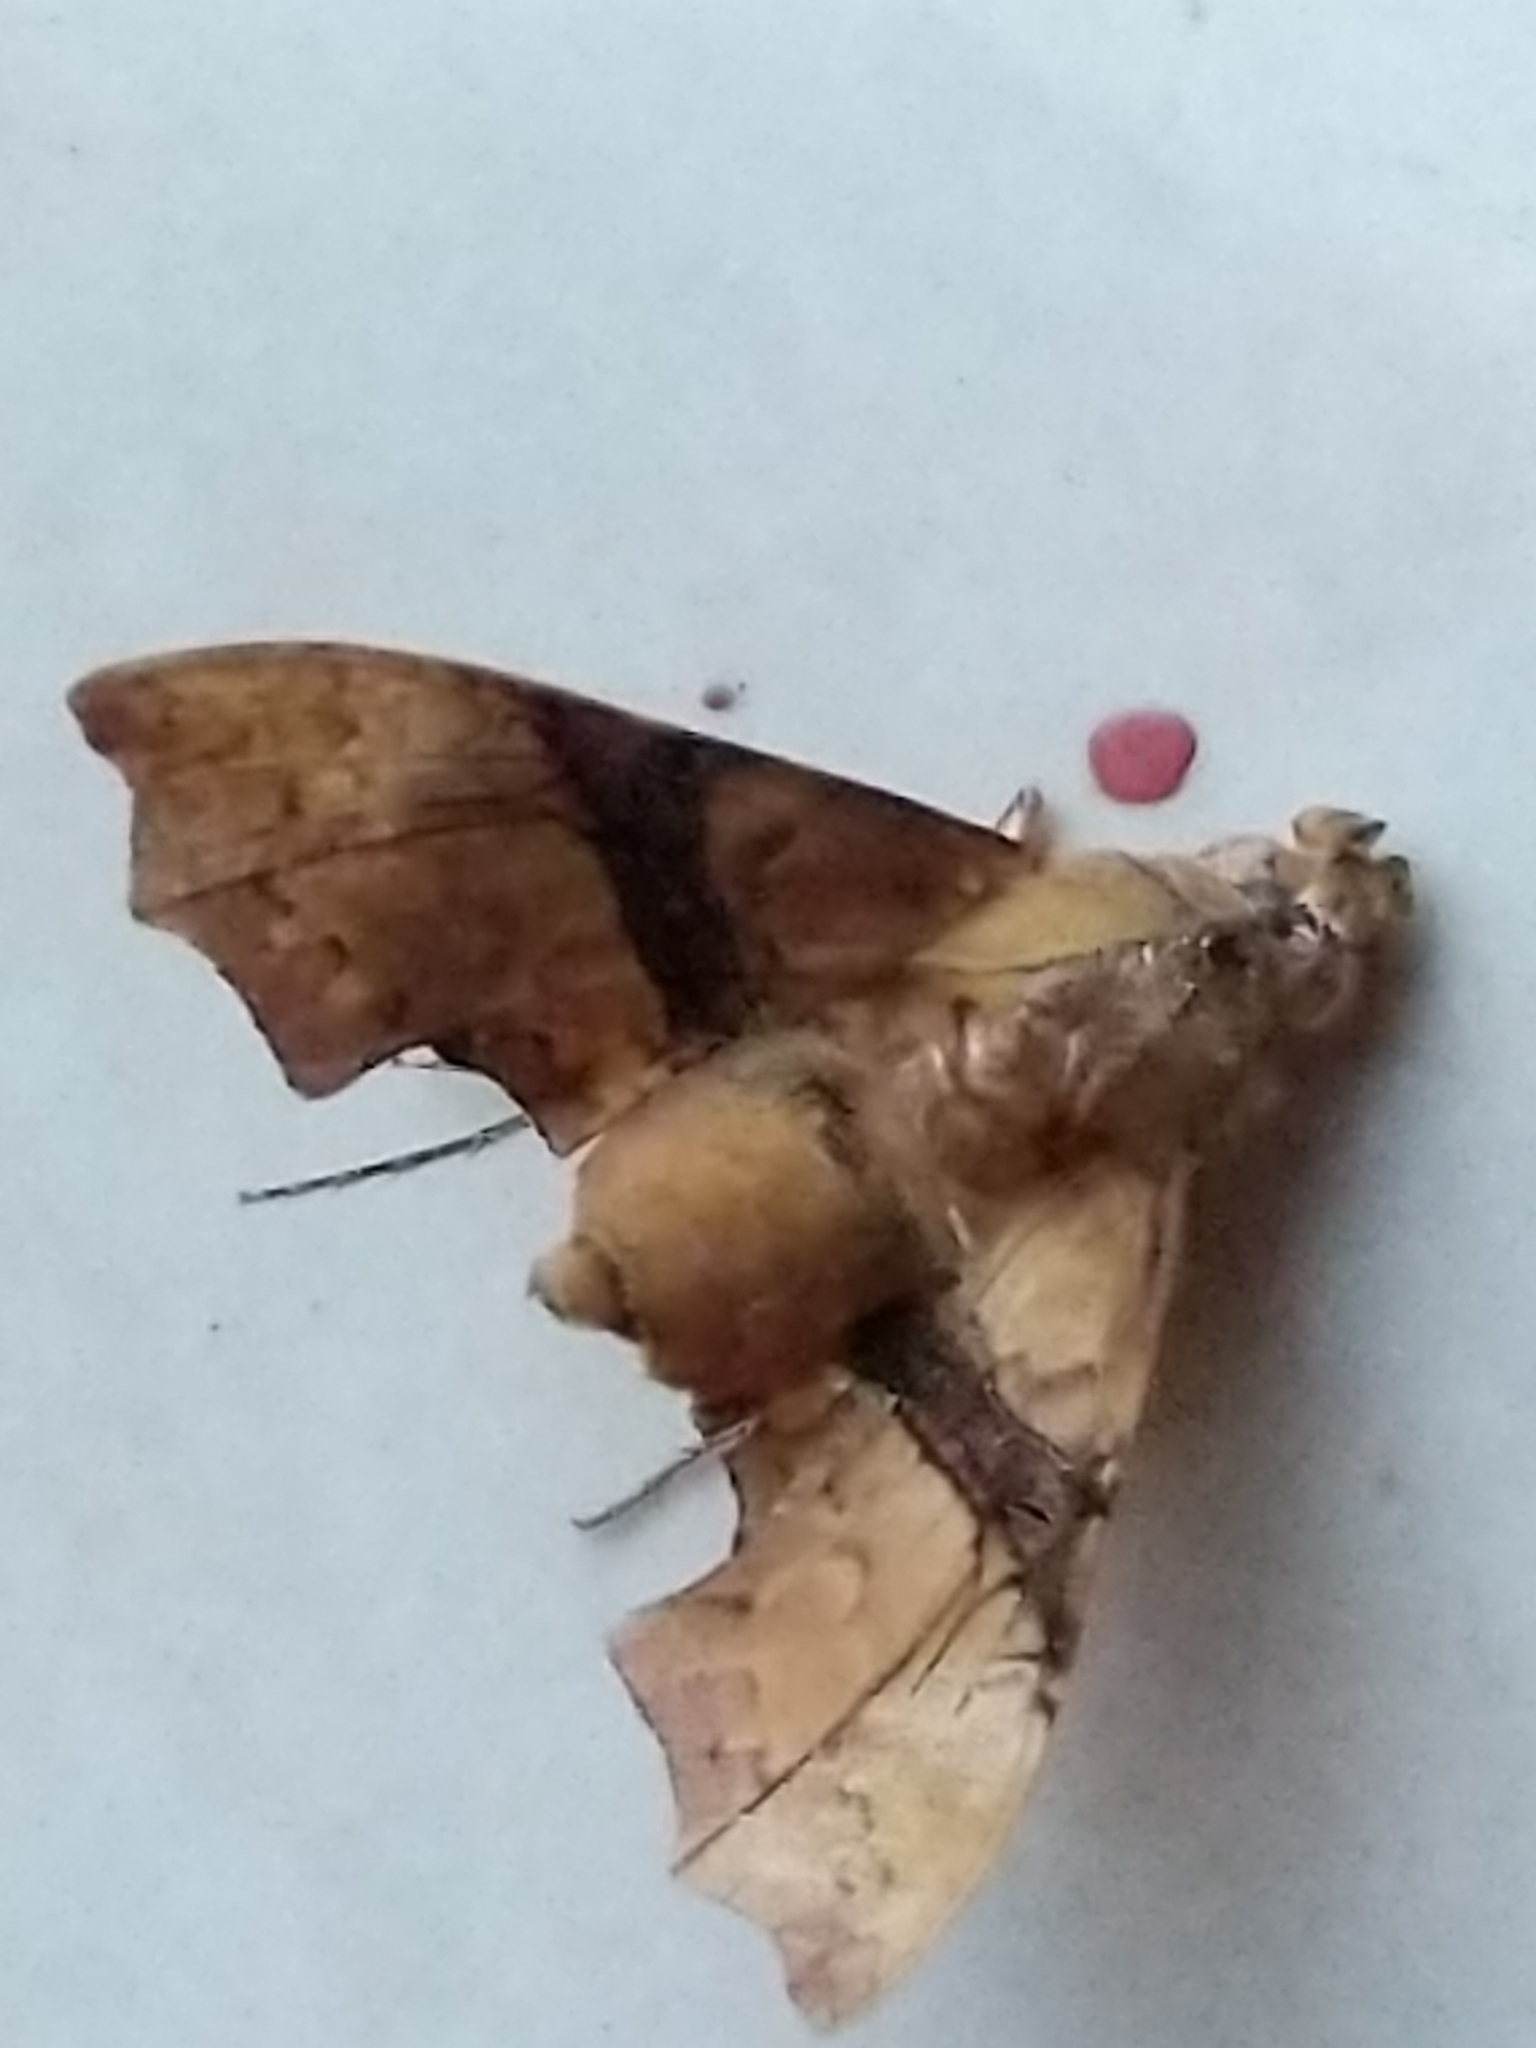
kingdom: Animalia
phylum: Arthropoda
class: Insecta
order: Lepidoptera
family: Sphingidae
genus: Aleuron
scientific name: Aleuron iphis
